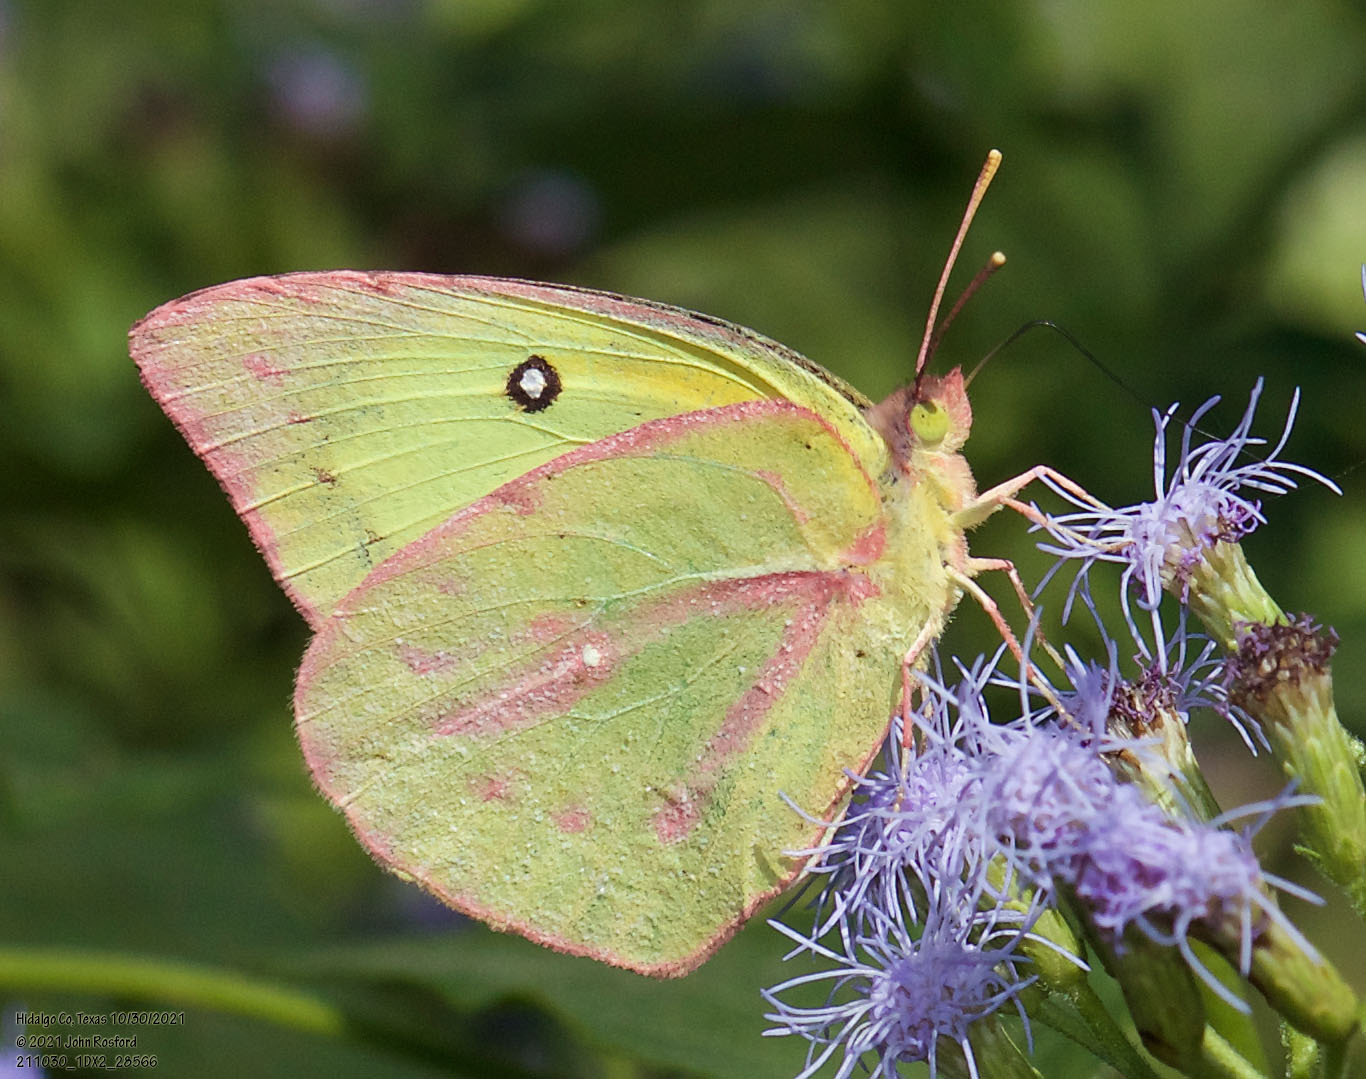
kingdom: Animalia
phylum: Arthropoda
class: Insecta
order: Lepidoptera
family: Pieridae
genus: Zerene
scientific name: Zerene cesonia
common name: Southern dogface
